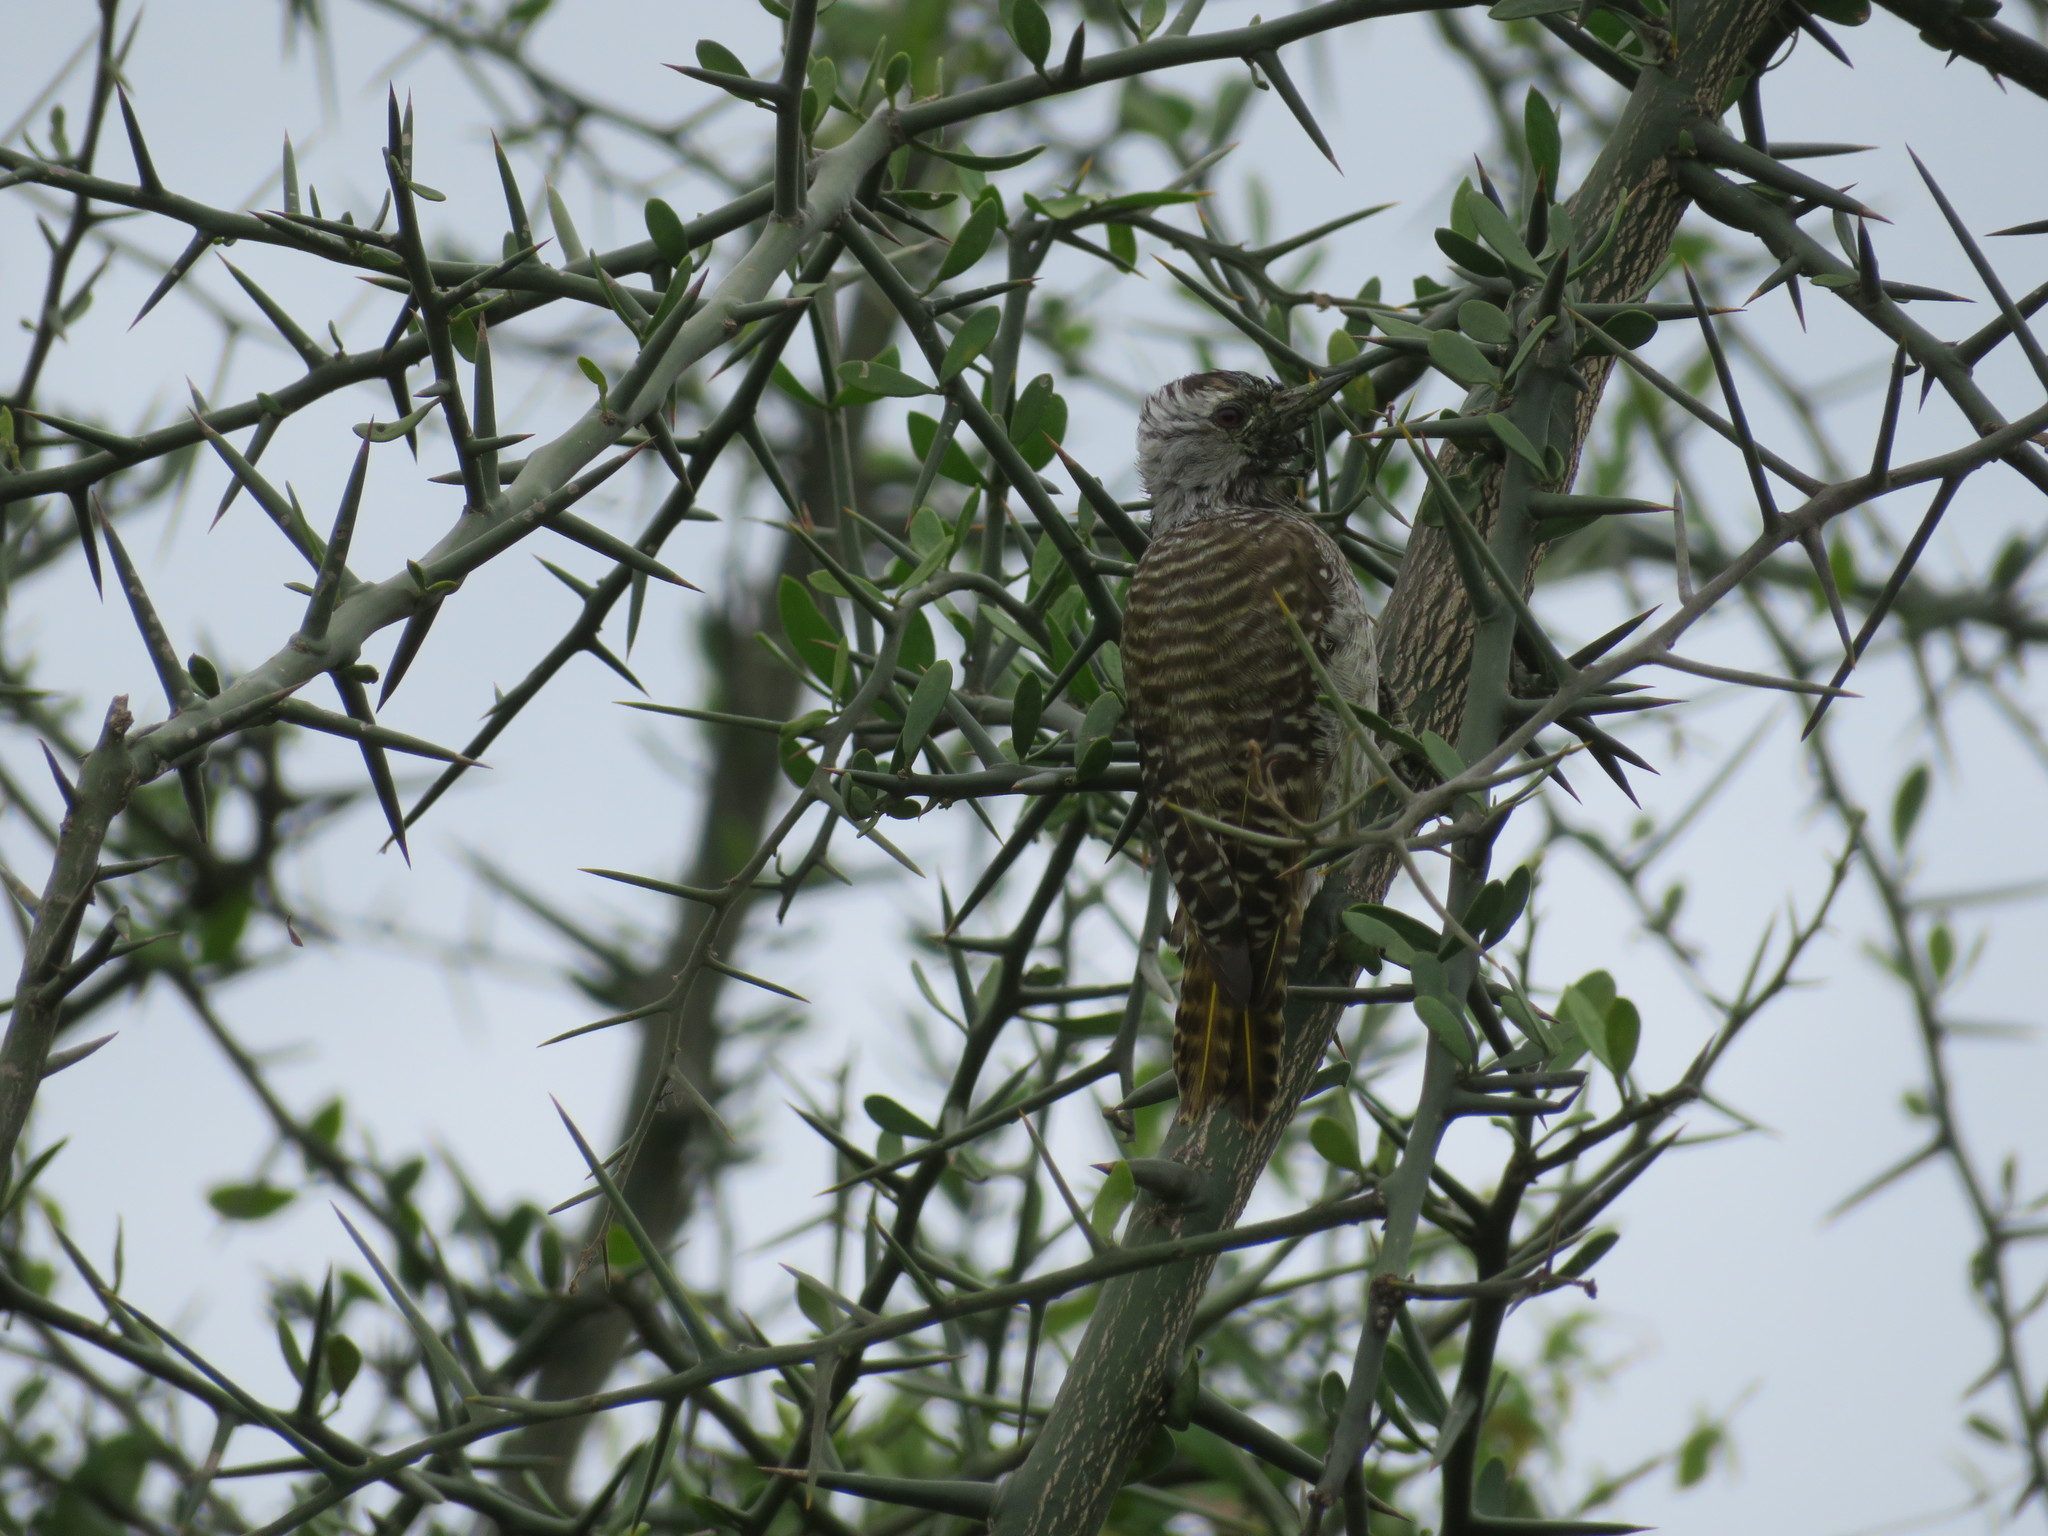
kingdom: Animalia
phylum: Chordata
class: Aves
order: Piciformes
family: Picidae
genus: Dendropicos
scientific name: Dendropicos fuscescens
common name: Cardinal woodpecker
